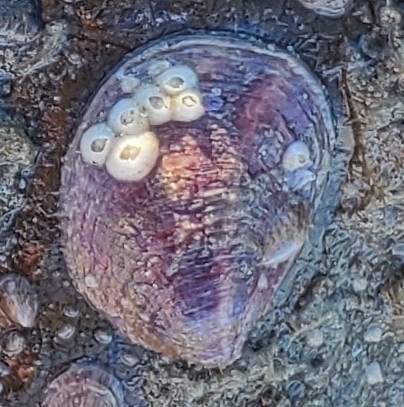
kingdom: Animalia
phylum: Mollusca
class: Gastropoda
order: Littorinimorpha
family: Calyptraeidae
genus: Crepidula
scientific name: Crepidula fornicata
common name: Slipper limpet
